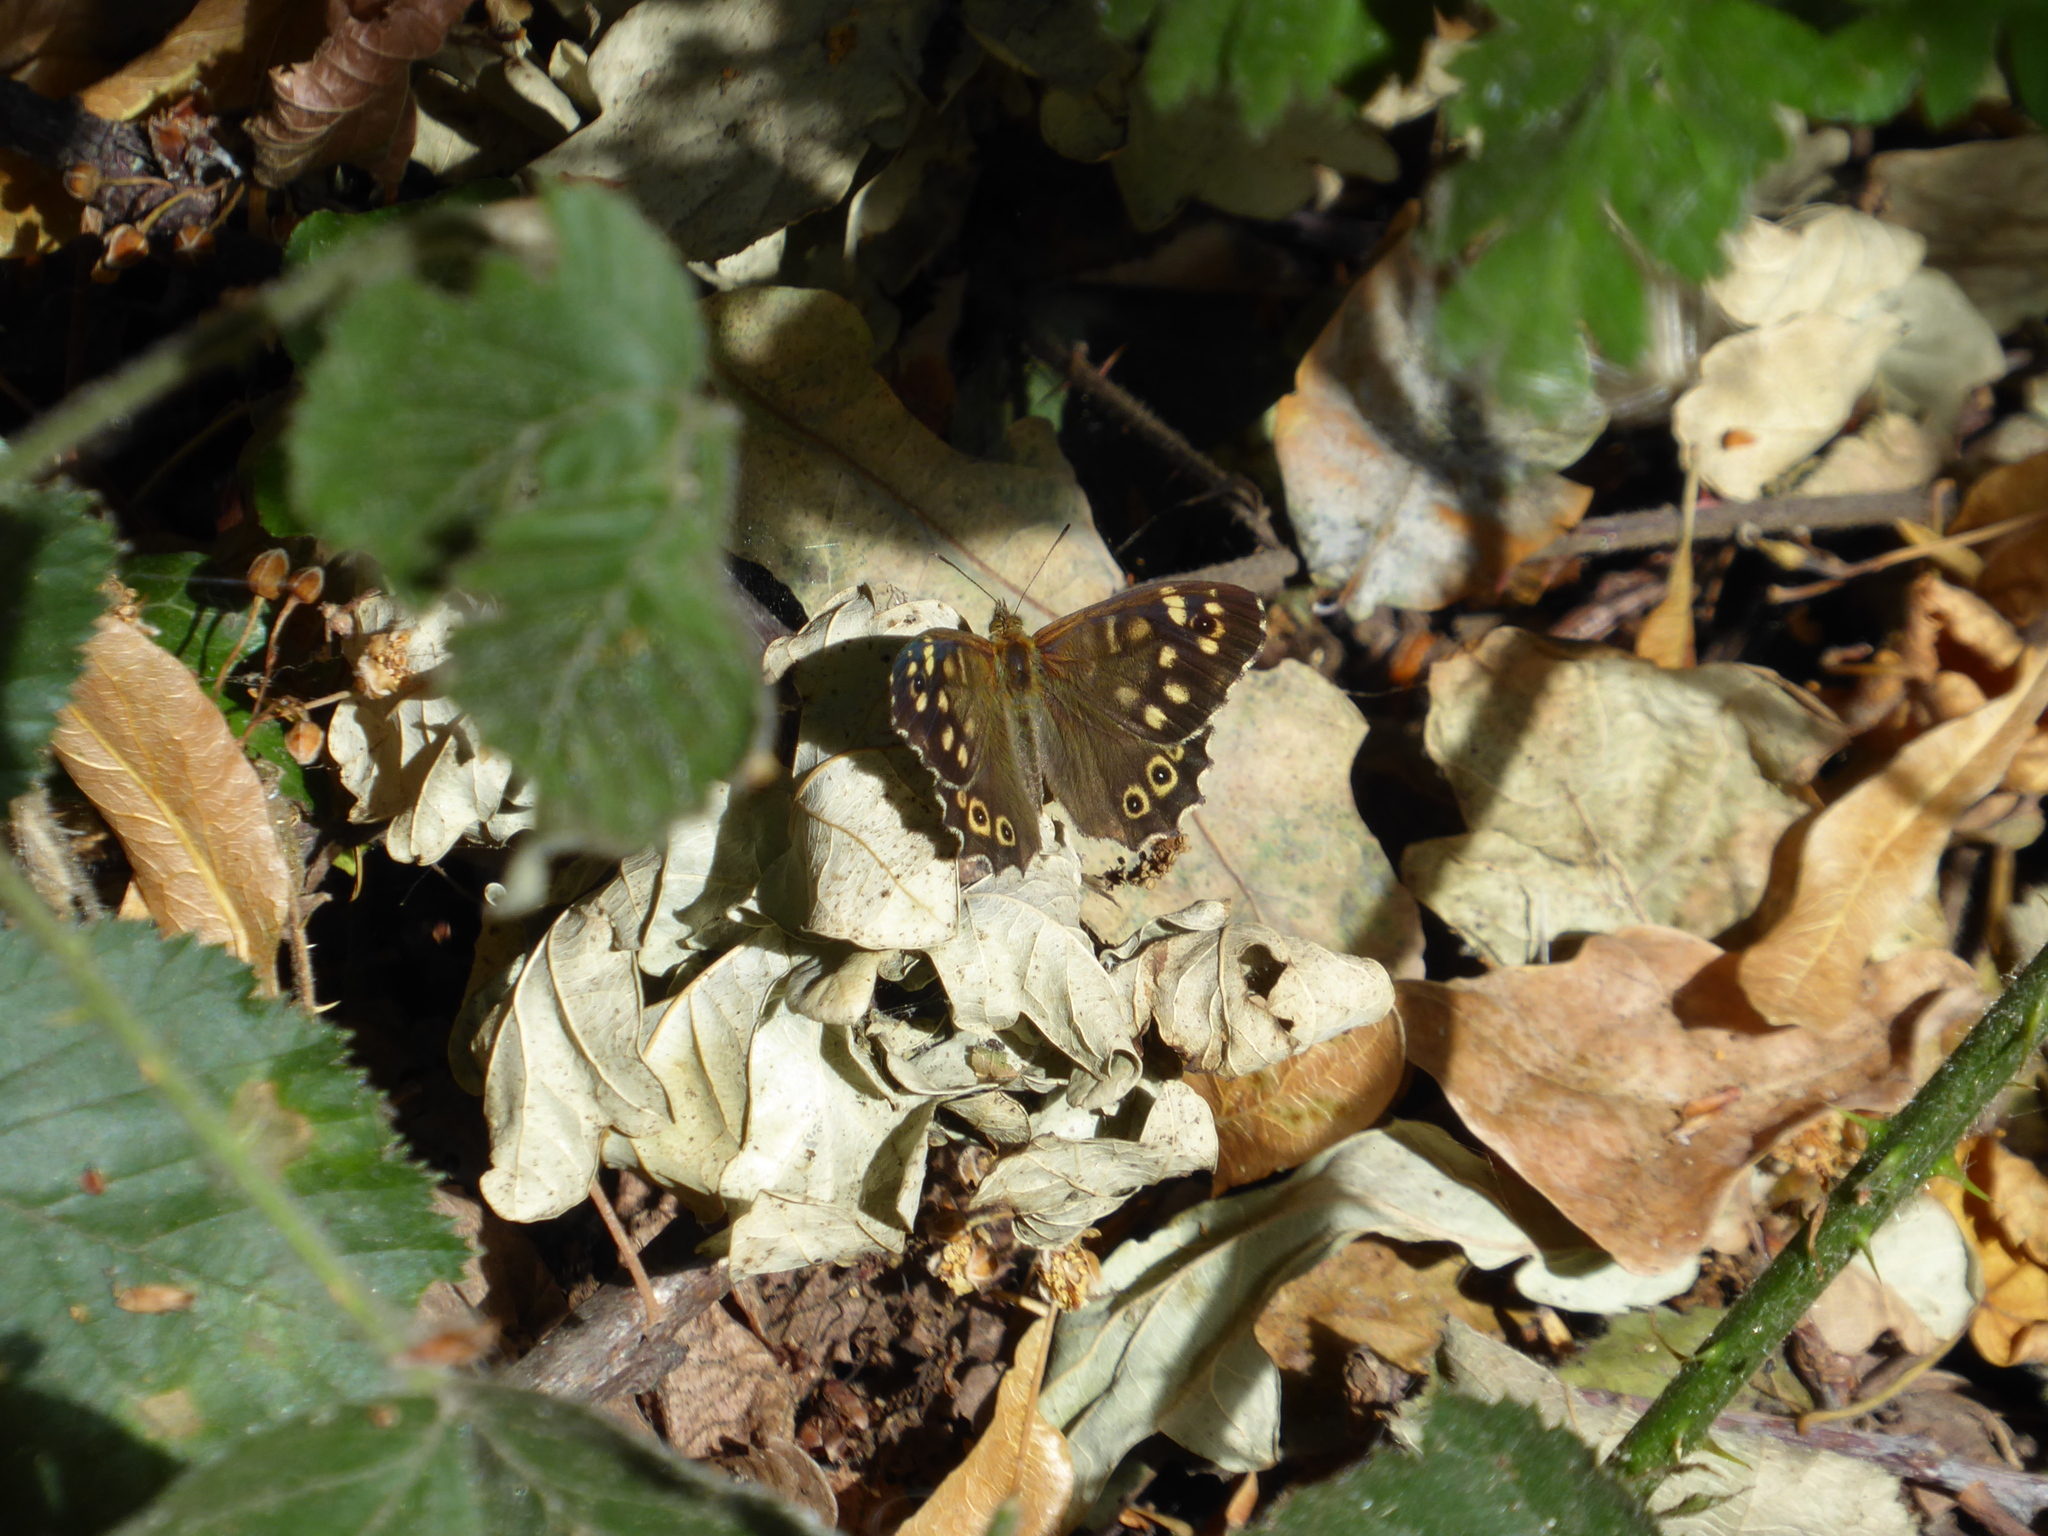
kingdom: Animalia
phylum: Arthropoda
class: Insecta
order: Lepidoptera
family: Nymphalidae
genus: Pararge
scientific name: Pararge aegeria
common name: Speckled wood
